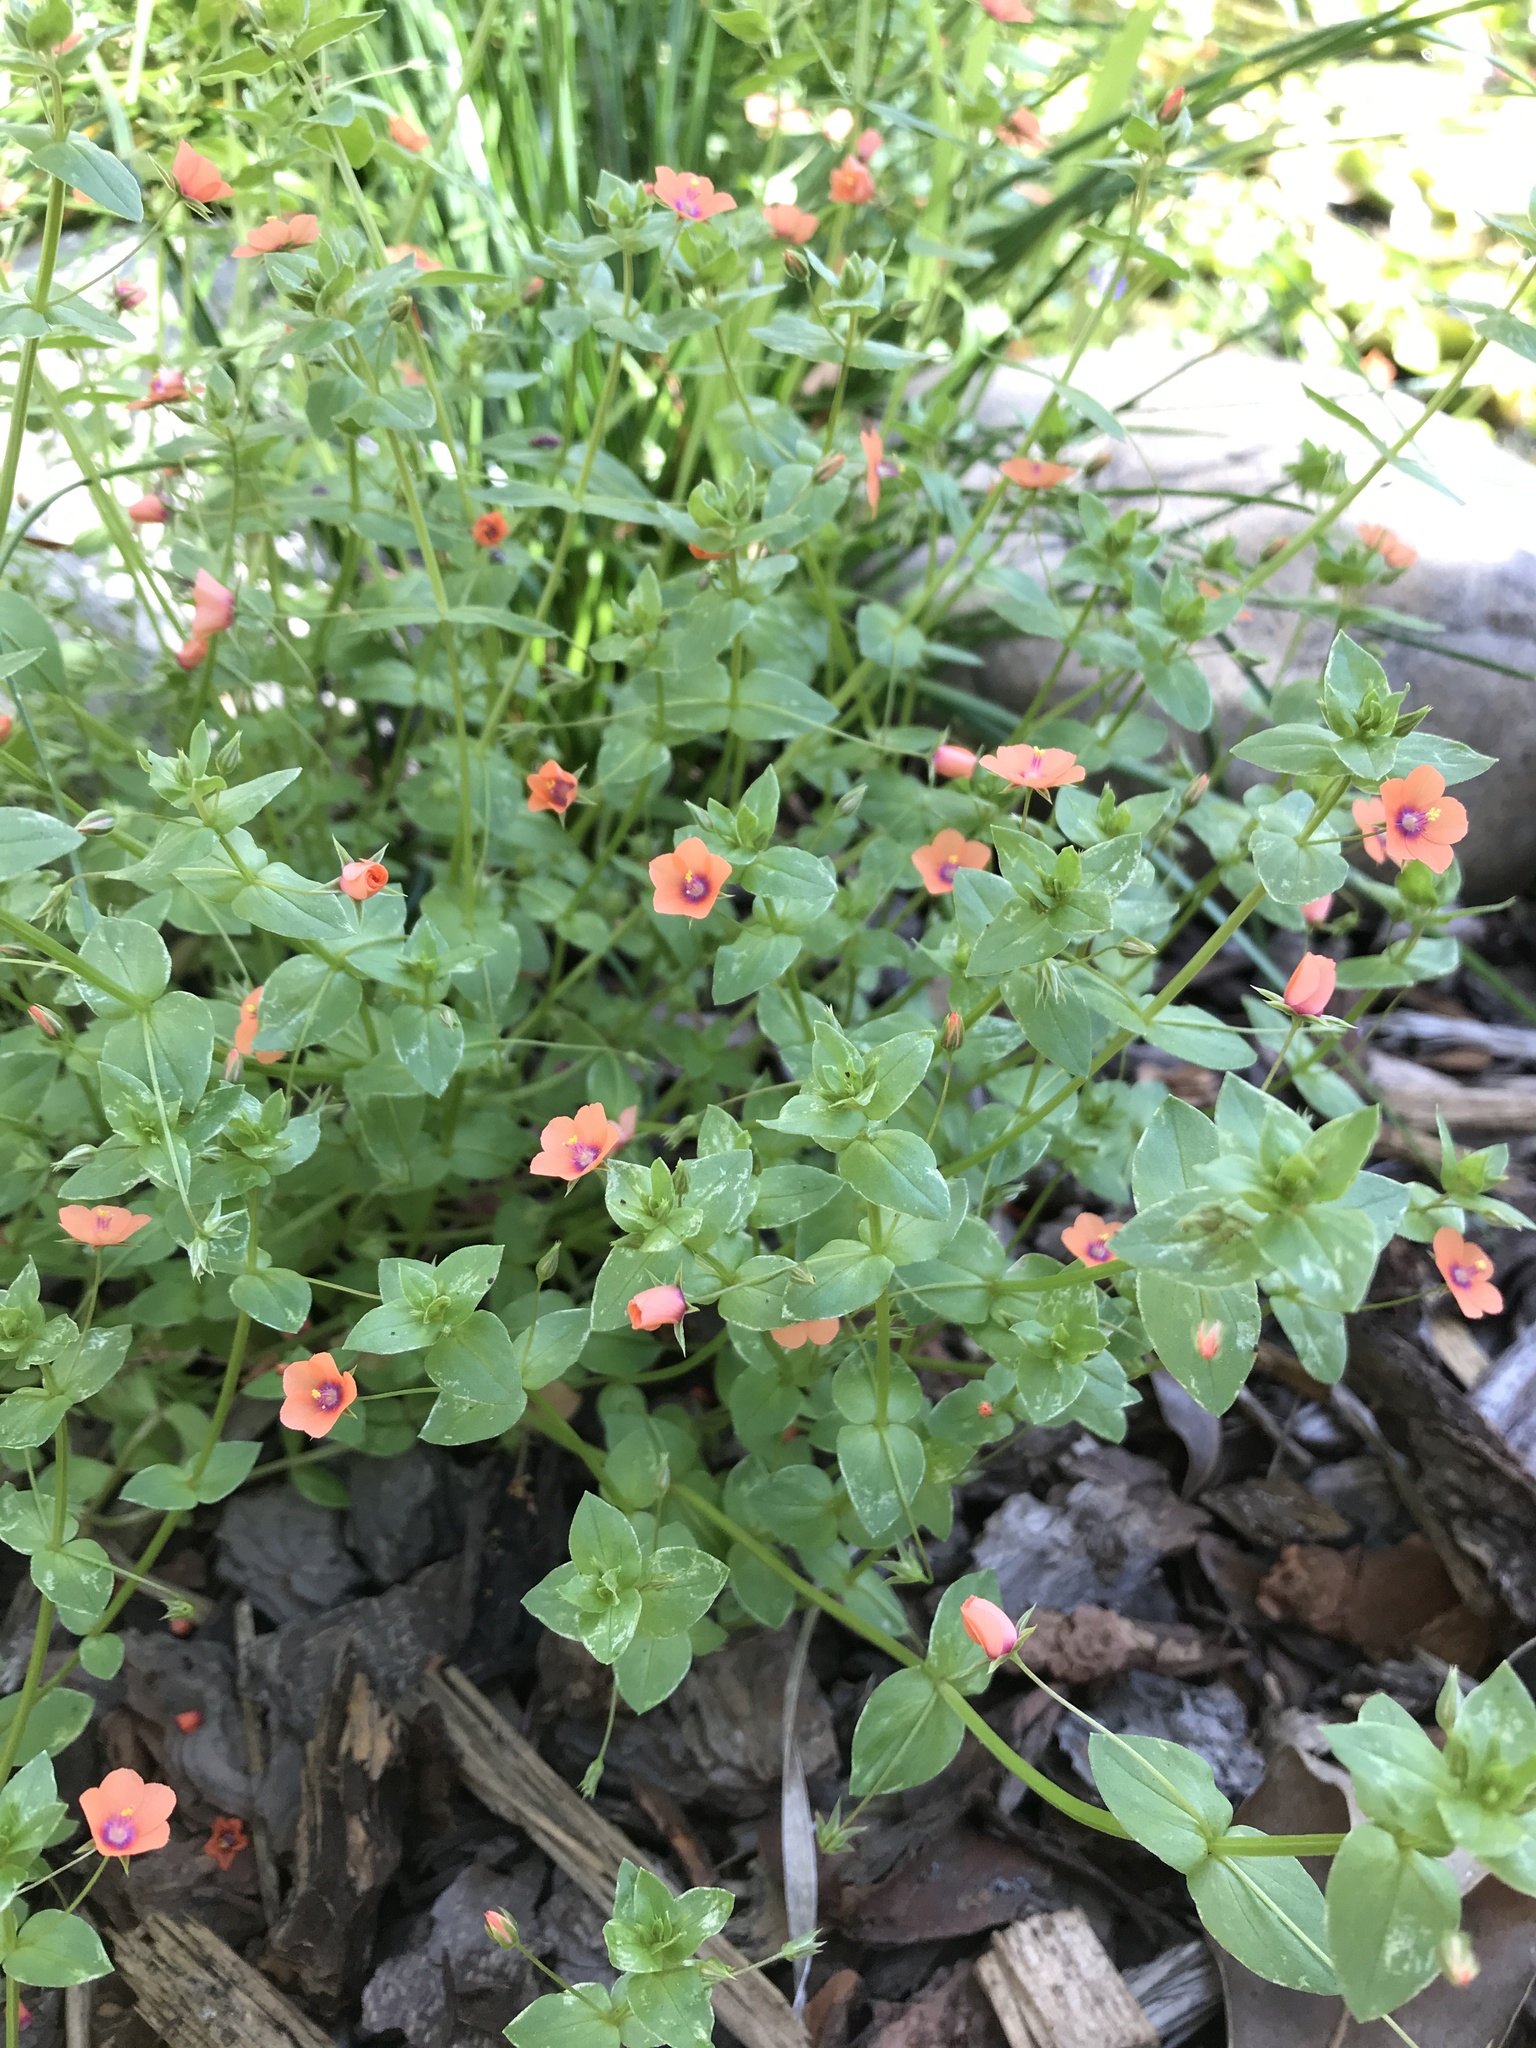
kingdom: Plantae
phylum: Tracheophyta
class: Magnoliopsida
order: Ericales
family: Primulaceae
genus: Lysimachia
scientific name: Lysimachia arvensis
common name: Scarlet pimpernel
